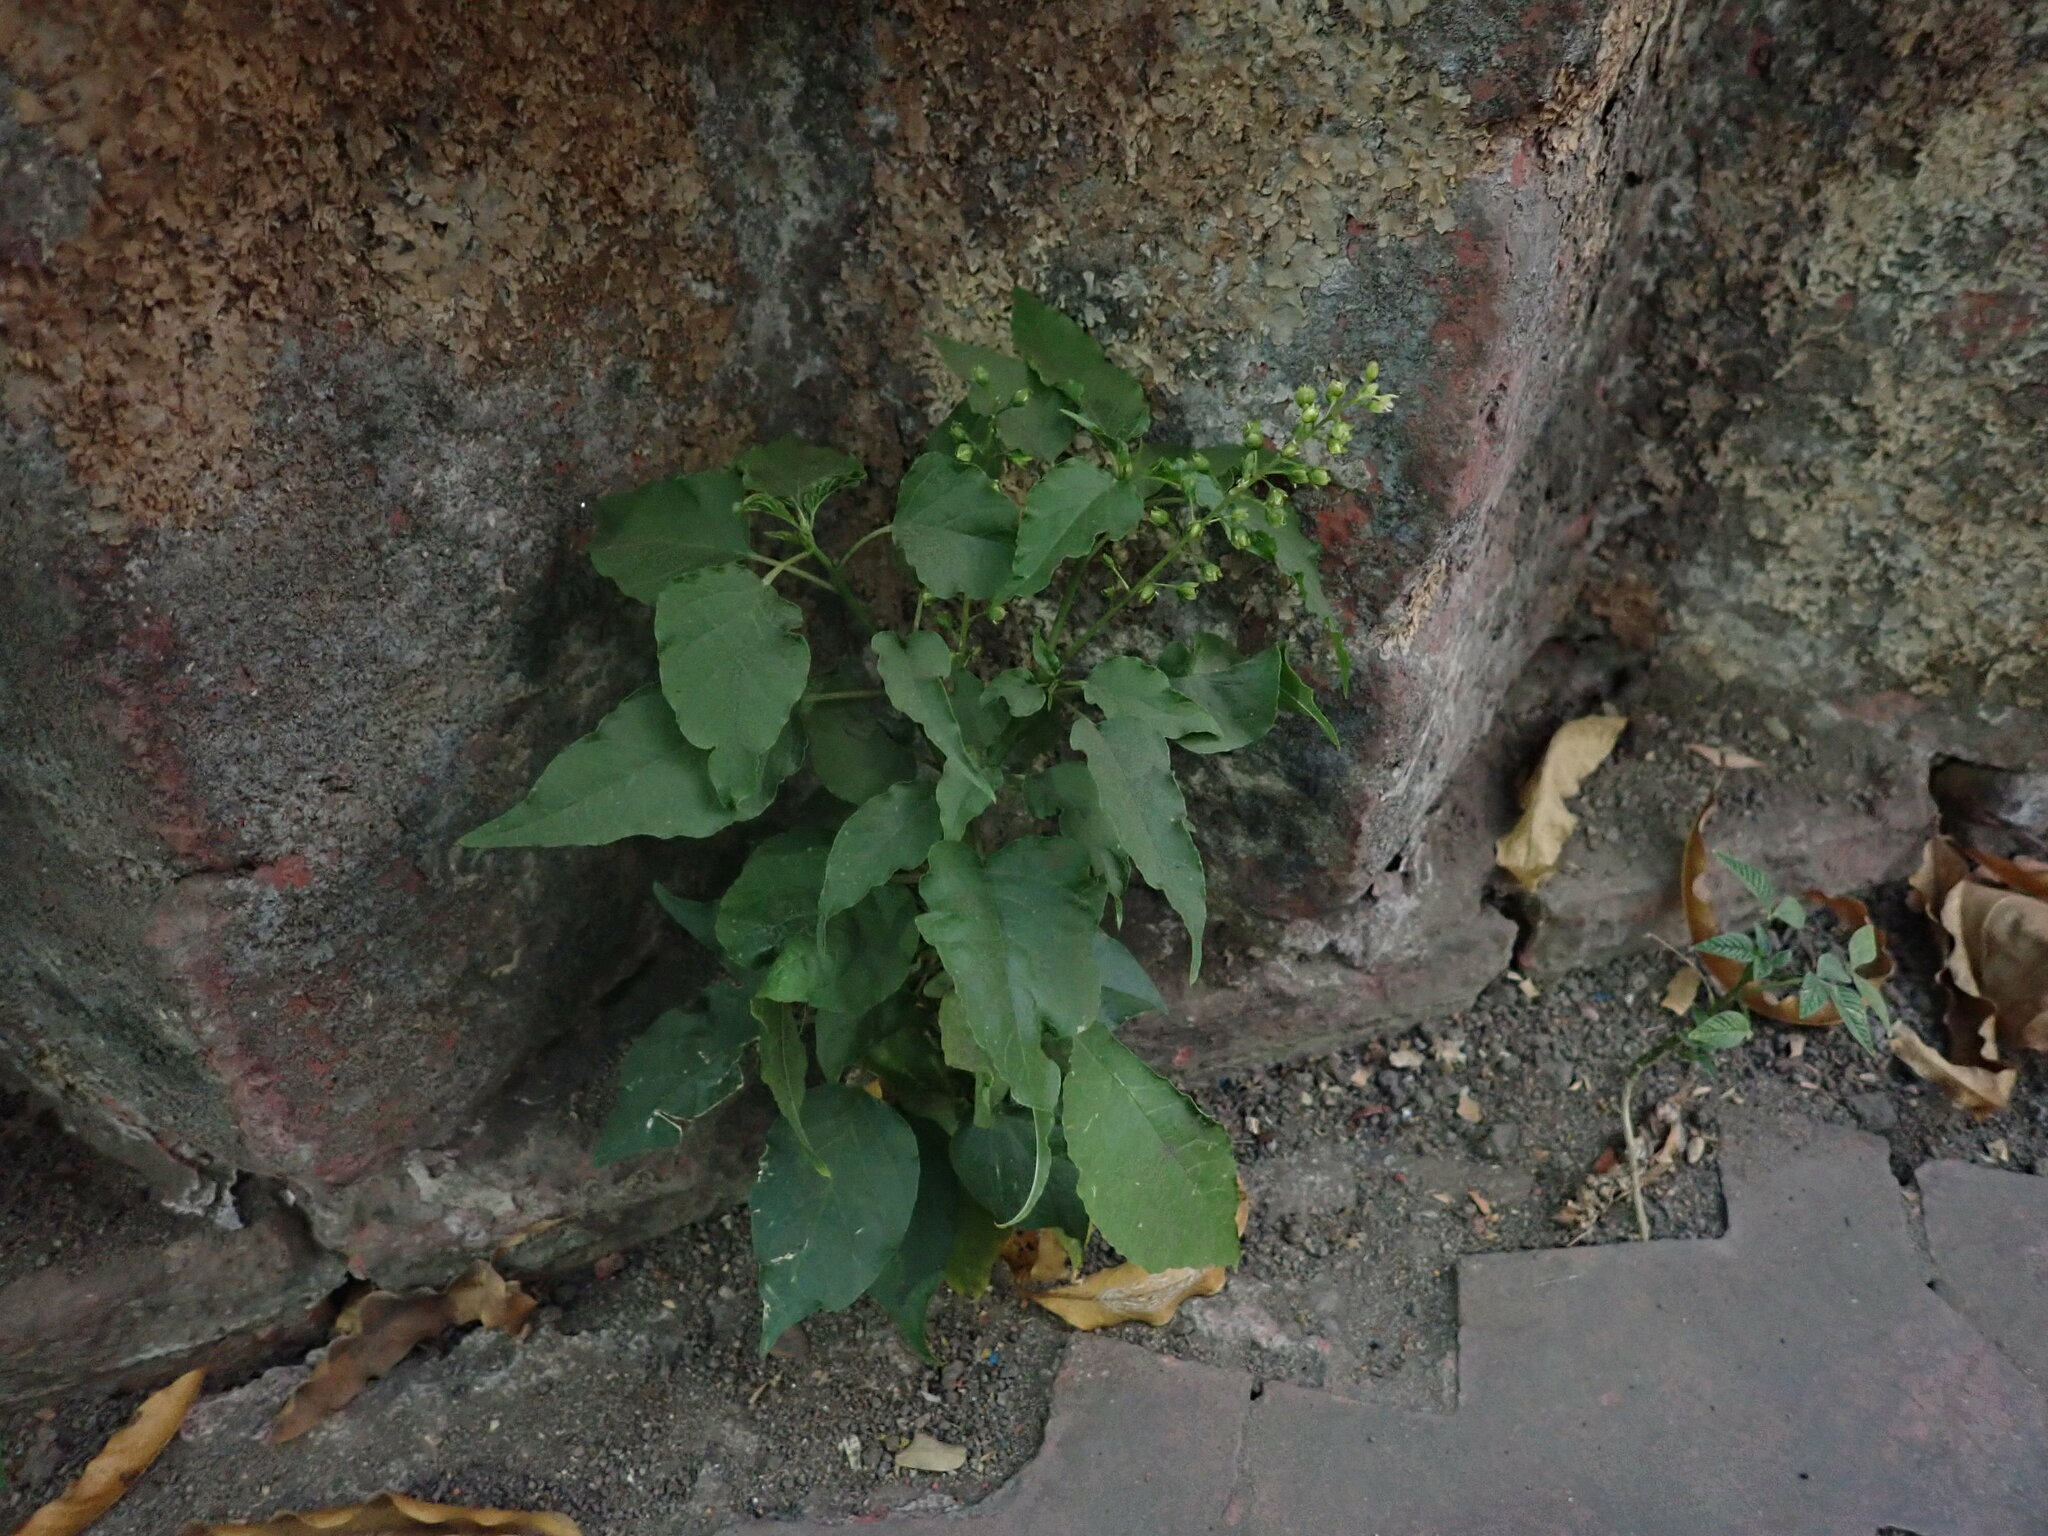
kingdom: Plantae
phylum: Tracheophyta
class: Magnoliopsida
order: Caryophyllales
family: Phytolaccaceae
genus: Rivina
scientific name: Rivina humilis
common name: Rougeplant
